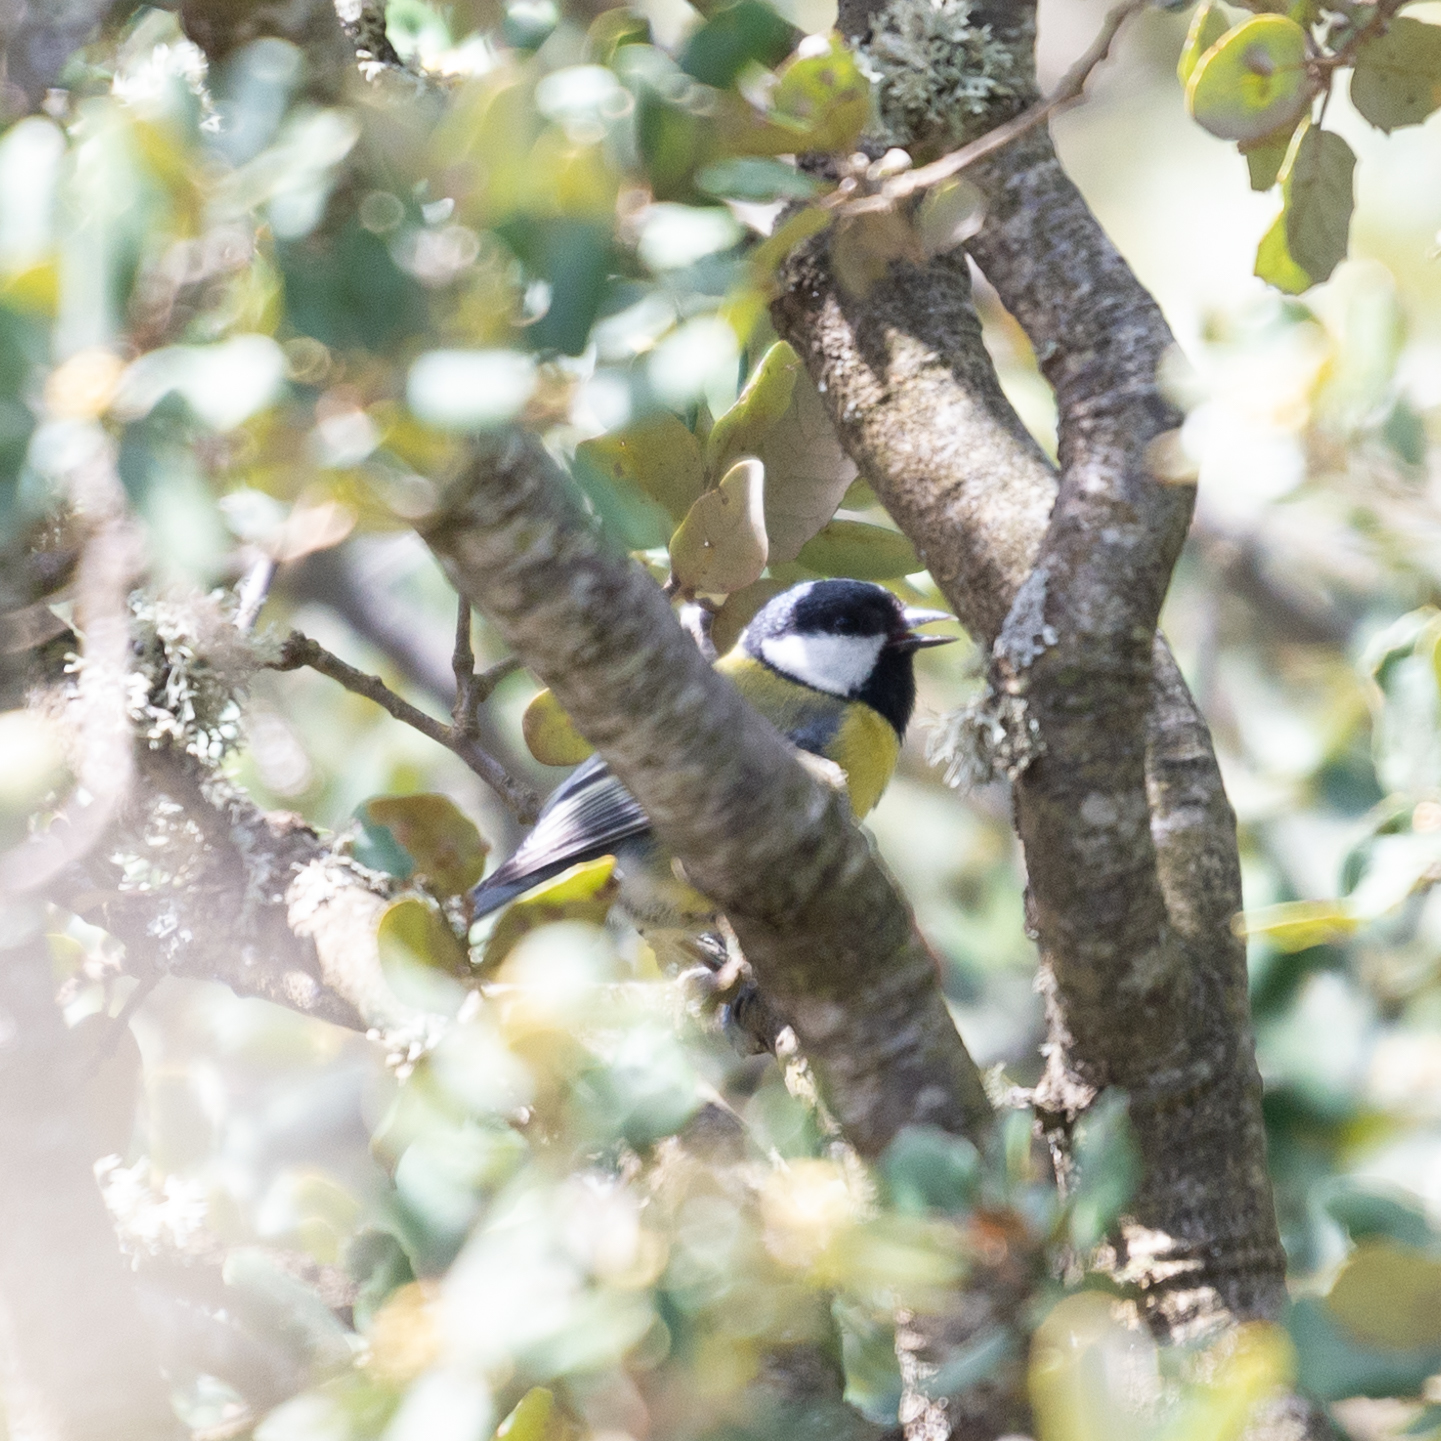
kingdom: Animalia
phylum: Chordata
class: Aves
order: Passeriformes
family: Paridae
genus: Parus
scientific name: Parus major
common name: Great tit
